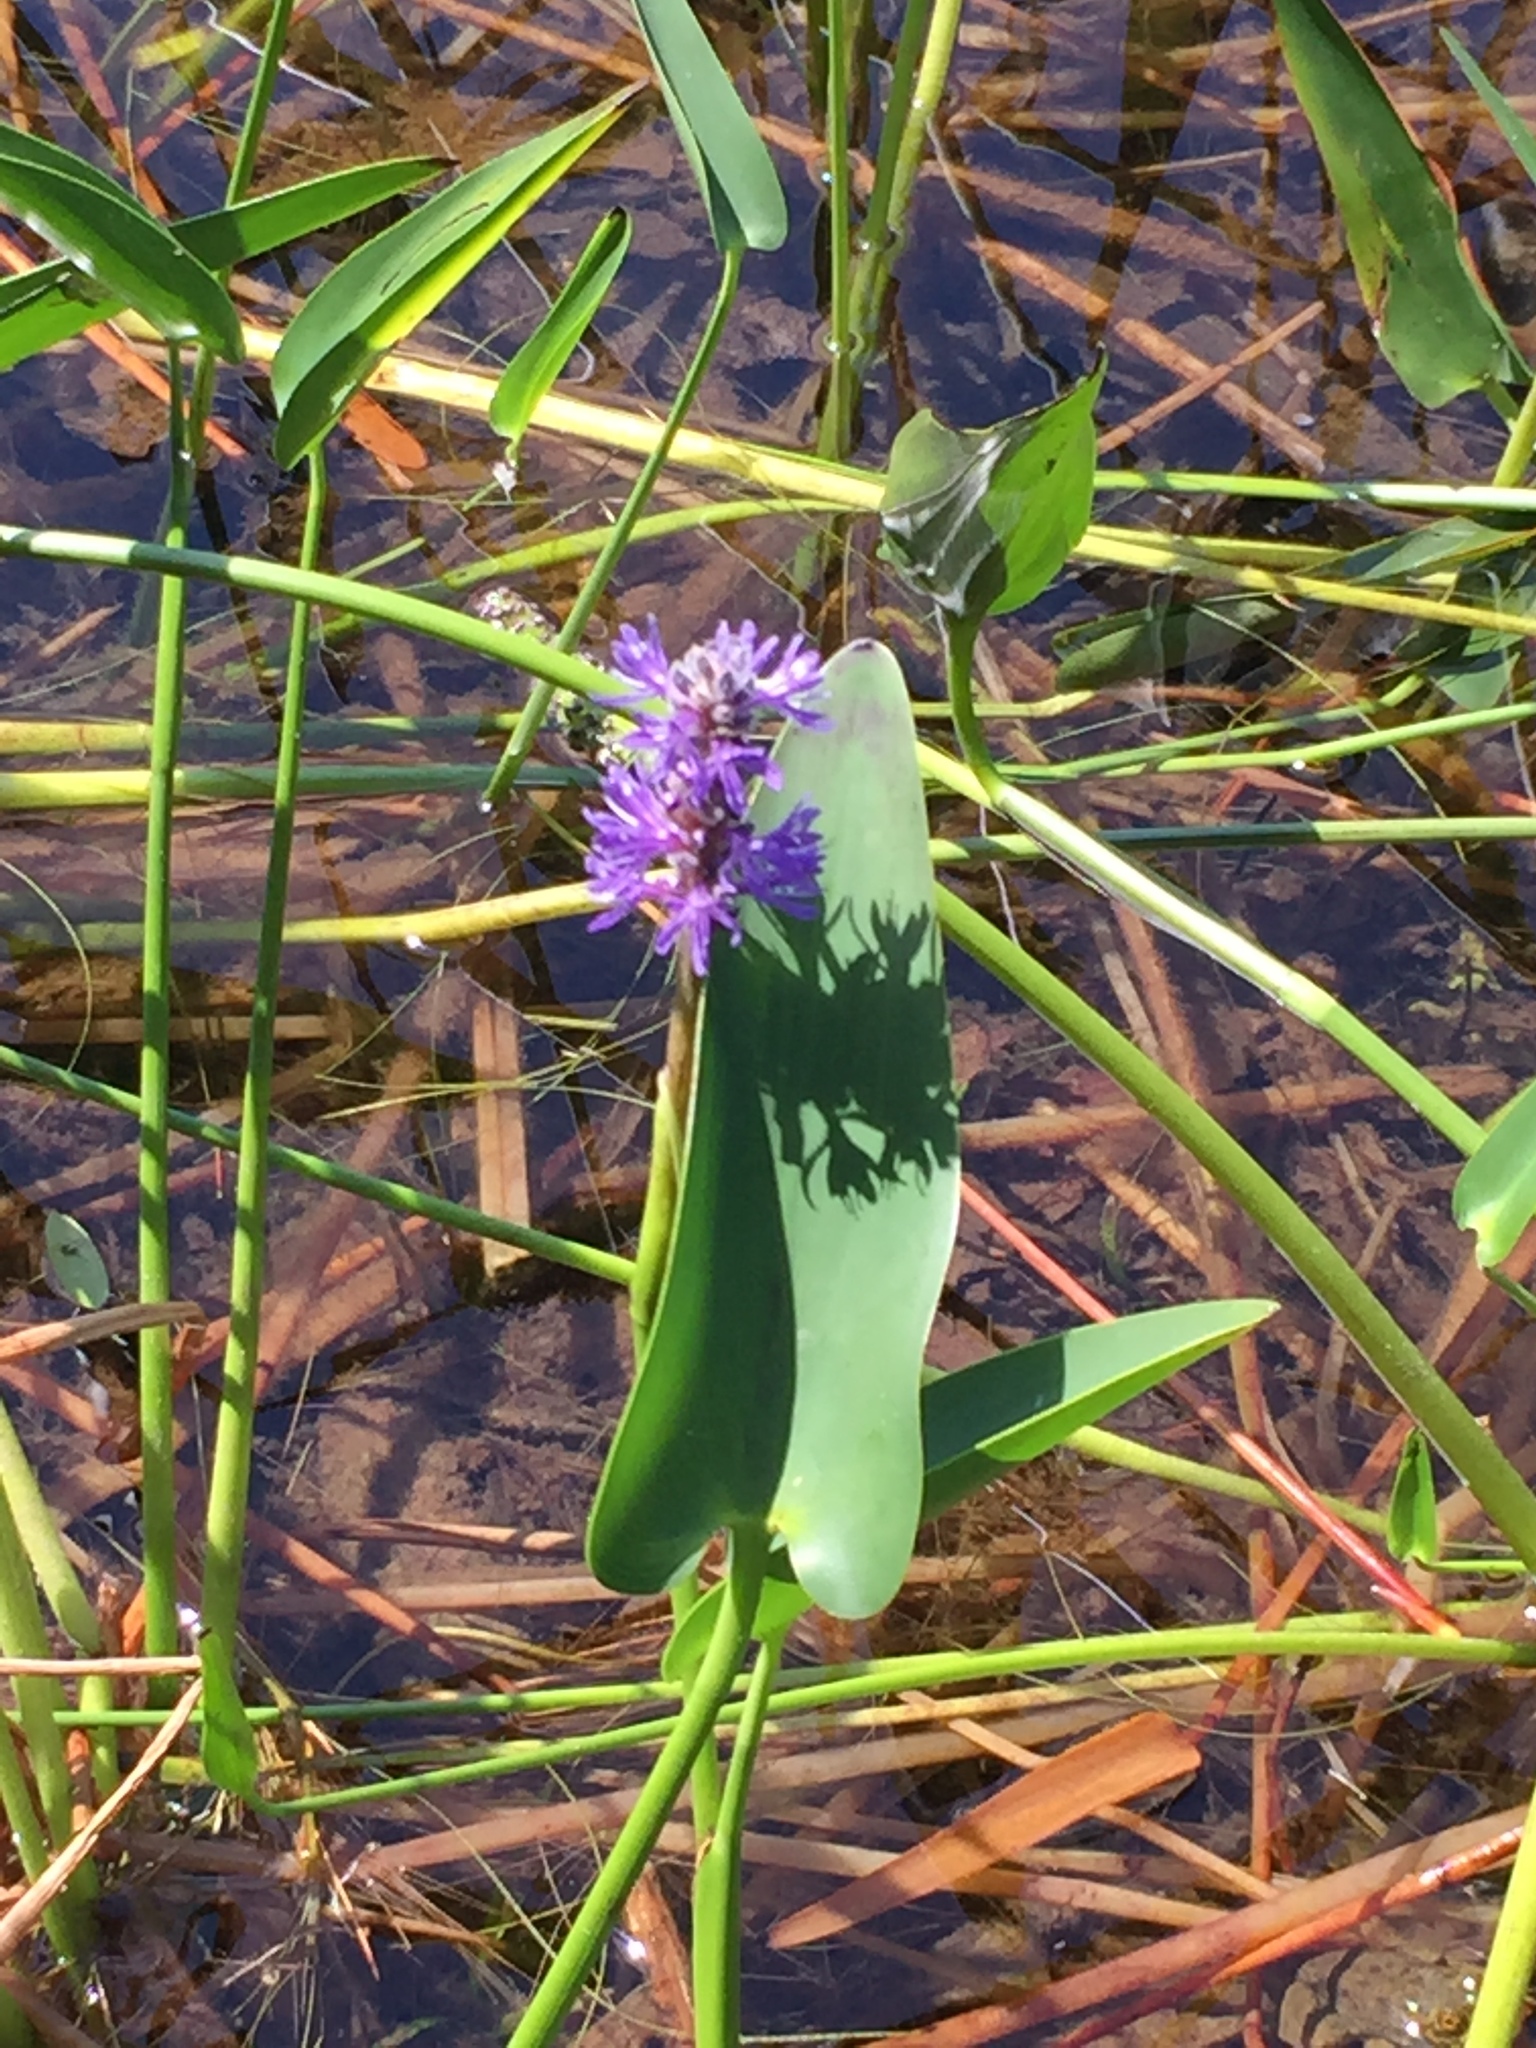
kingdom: Plantae
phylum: Tracheophyta
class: Liliopsida
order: Commelinales
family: Pontederiaceae
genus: Pontederia
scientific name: Pontederia cordata
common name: Pickerelweed
